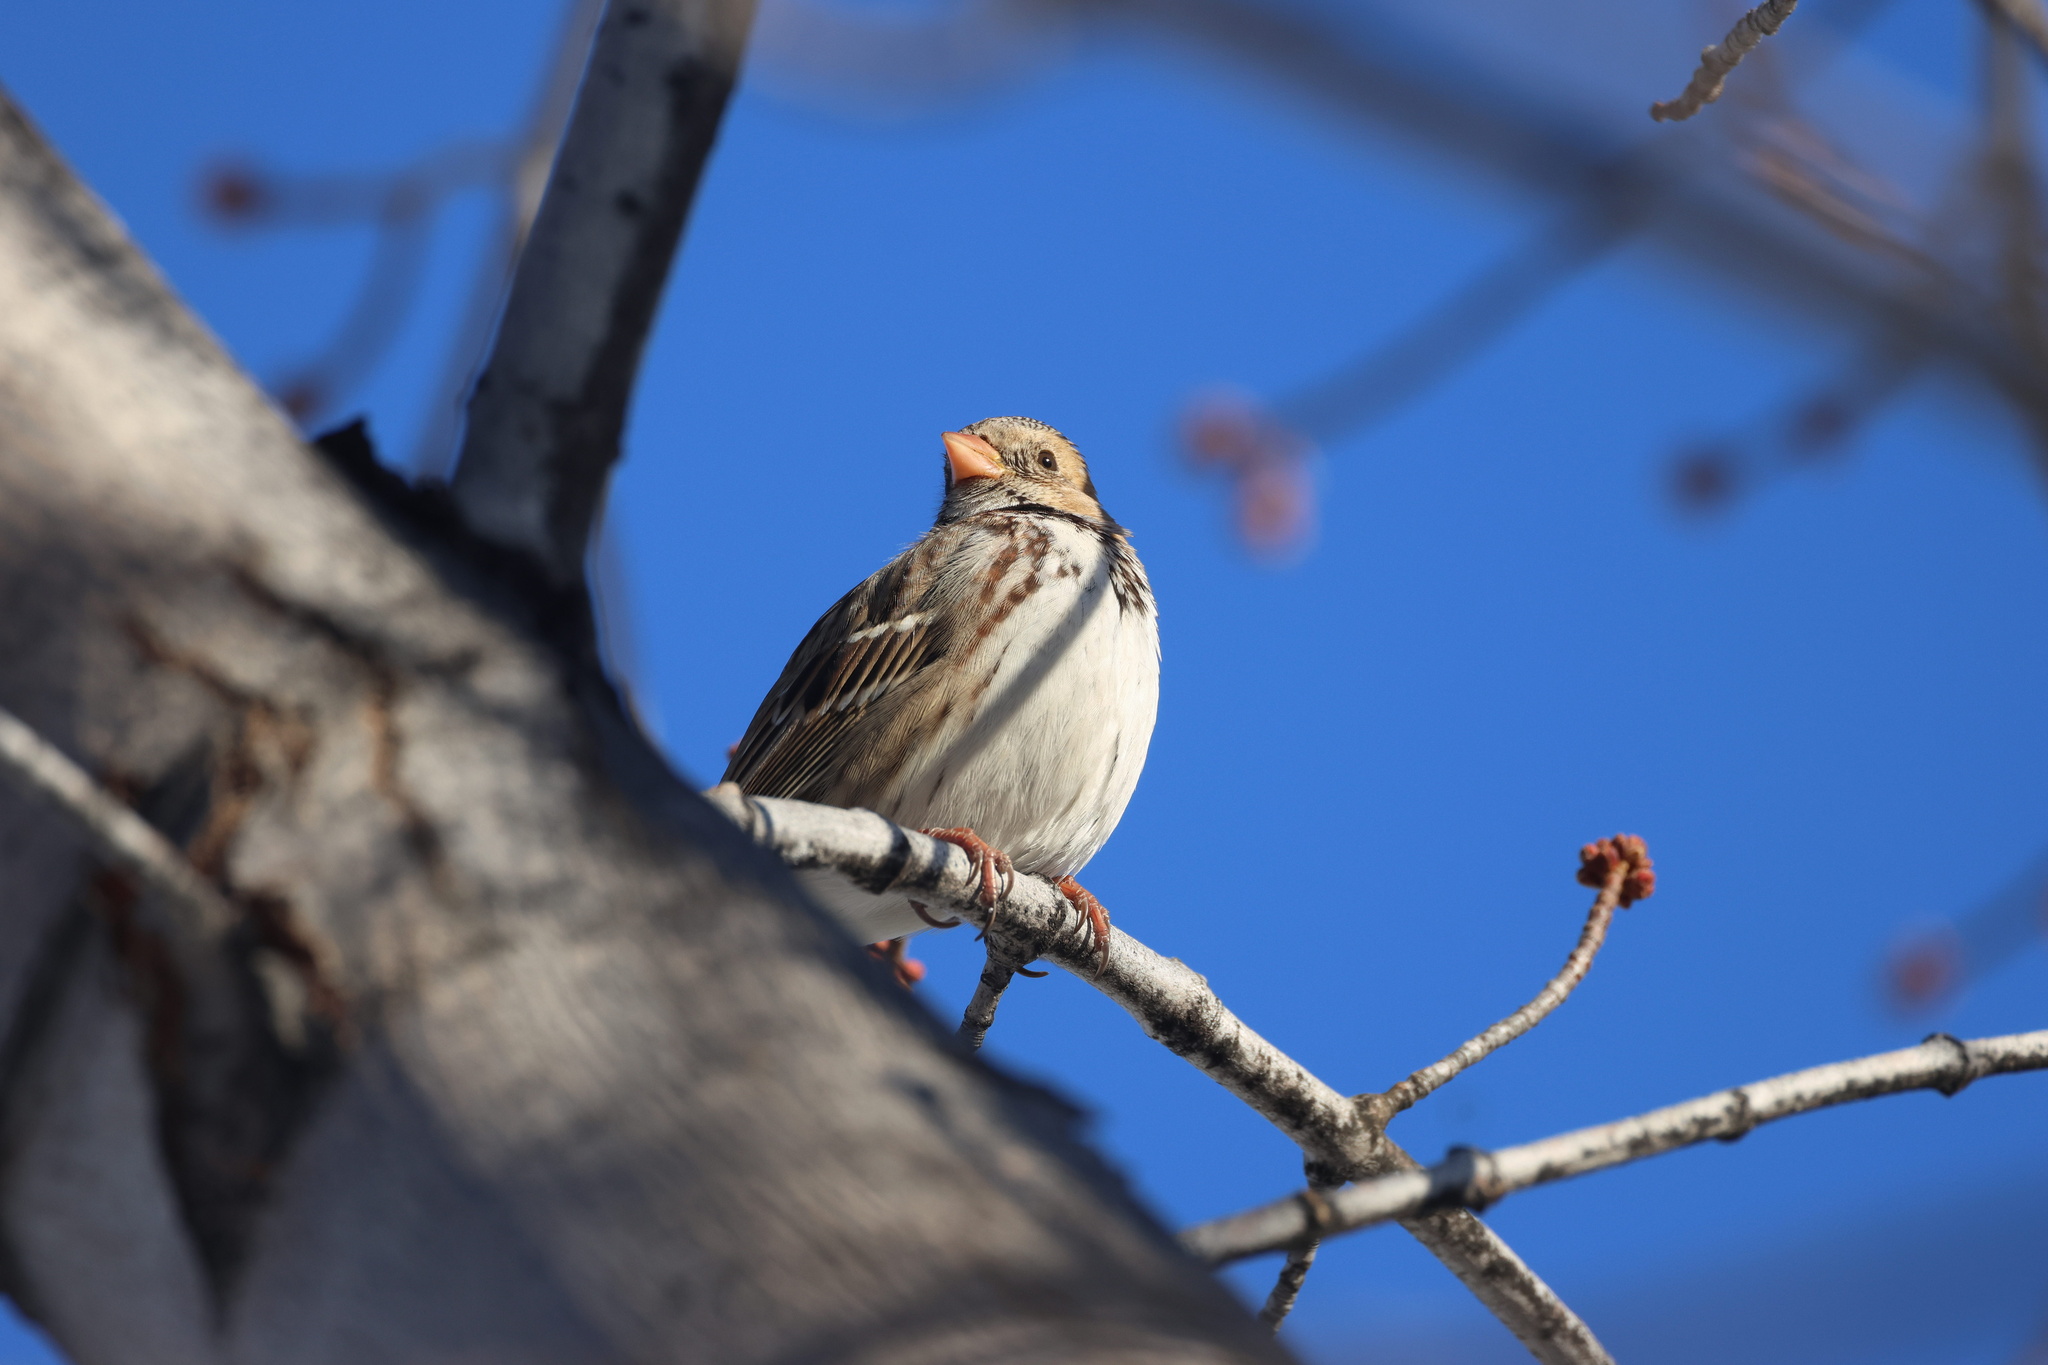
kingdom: Animalia
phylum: Chordata
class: Aves
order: Passeriformes
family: Passerellidae
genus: Zonotrichia
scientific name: Zonotrichia querula
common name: Harris's sparrow
